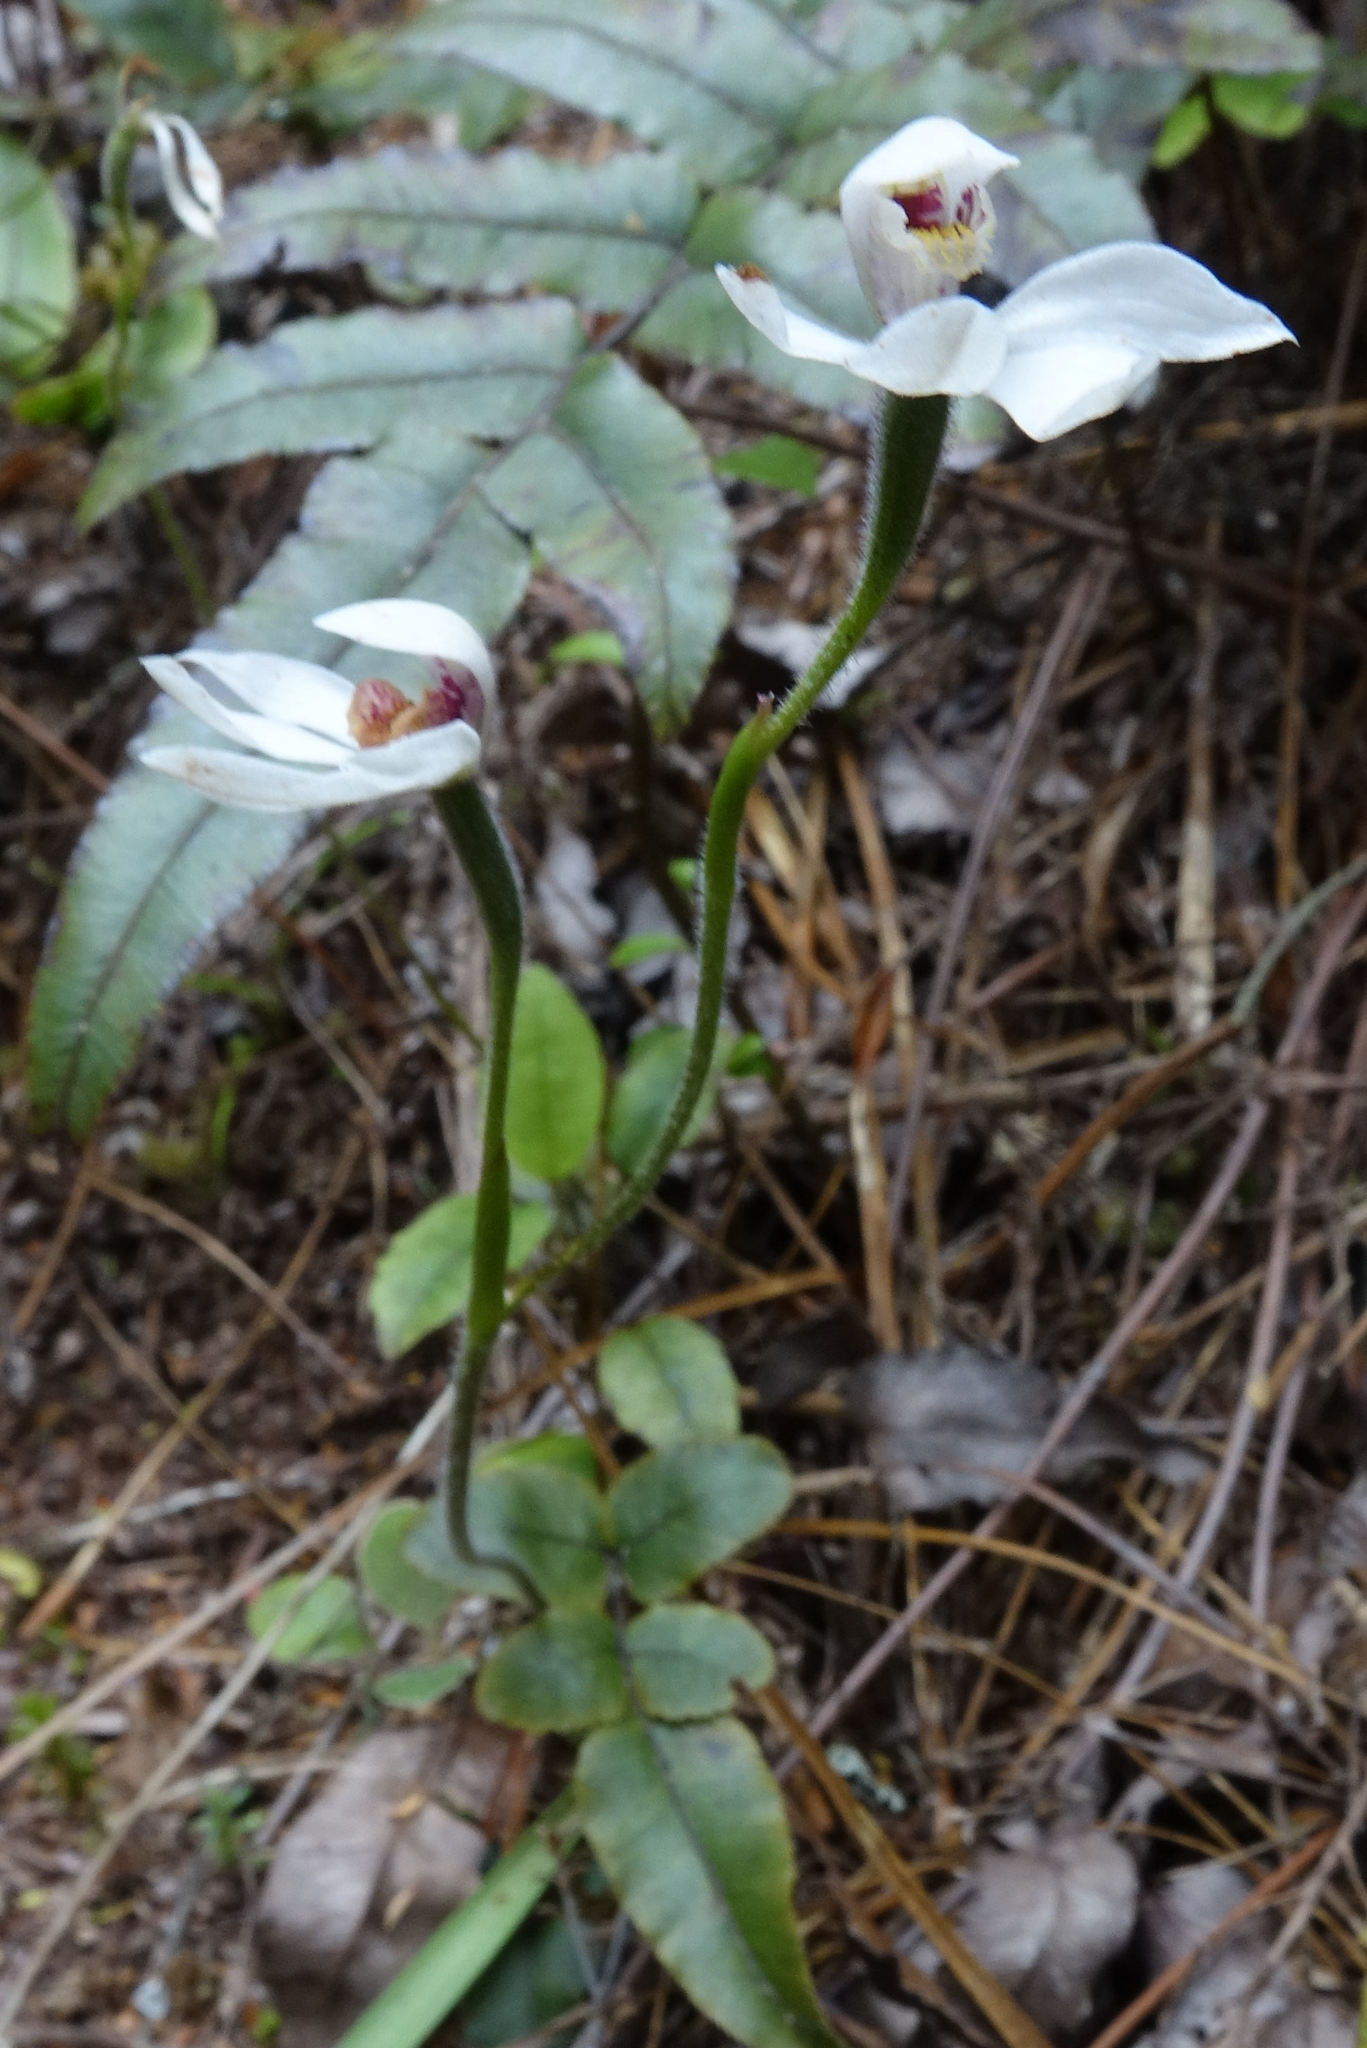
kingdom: Plantae
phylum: Tracheophyta
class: Liliopsida
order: Asparagales
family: Orchidaceae
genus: Caladenia
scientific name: Caladenia lyallii
